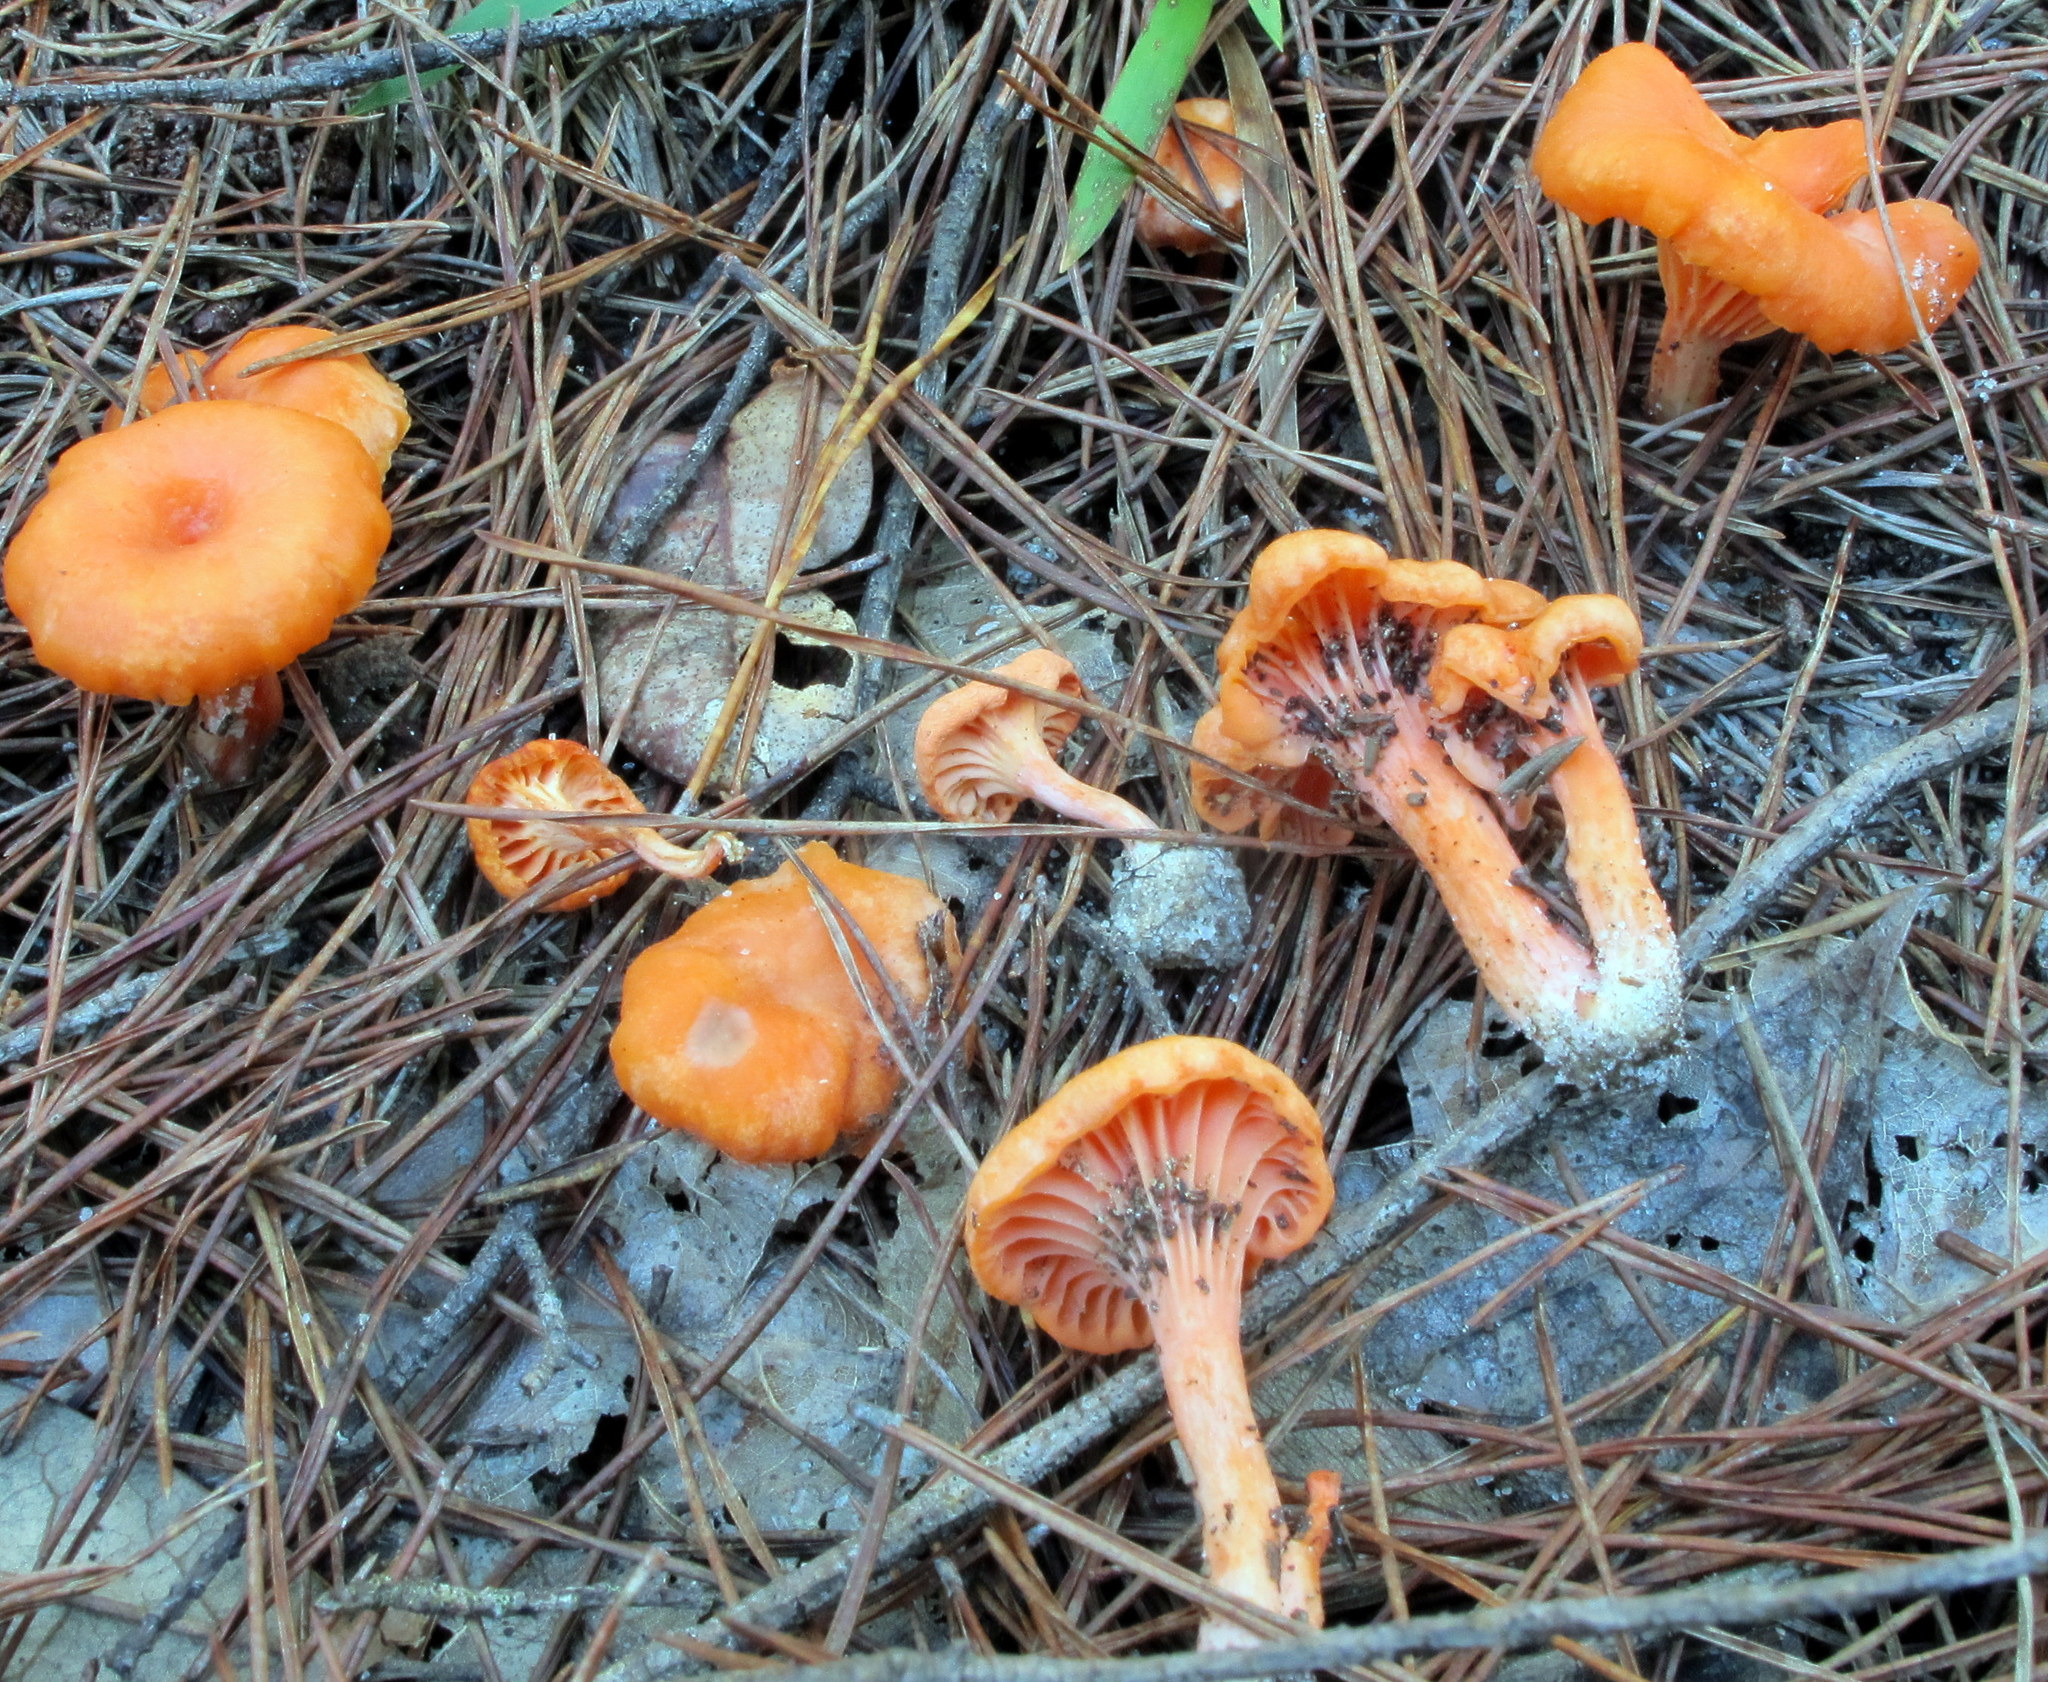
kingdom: Fungi
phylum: Basidiomycota
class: Agaricomycetes
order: Cantharellales
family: Hydnaceae
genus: Cantharellus
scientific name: Cantharellus texensis
